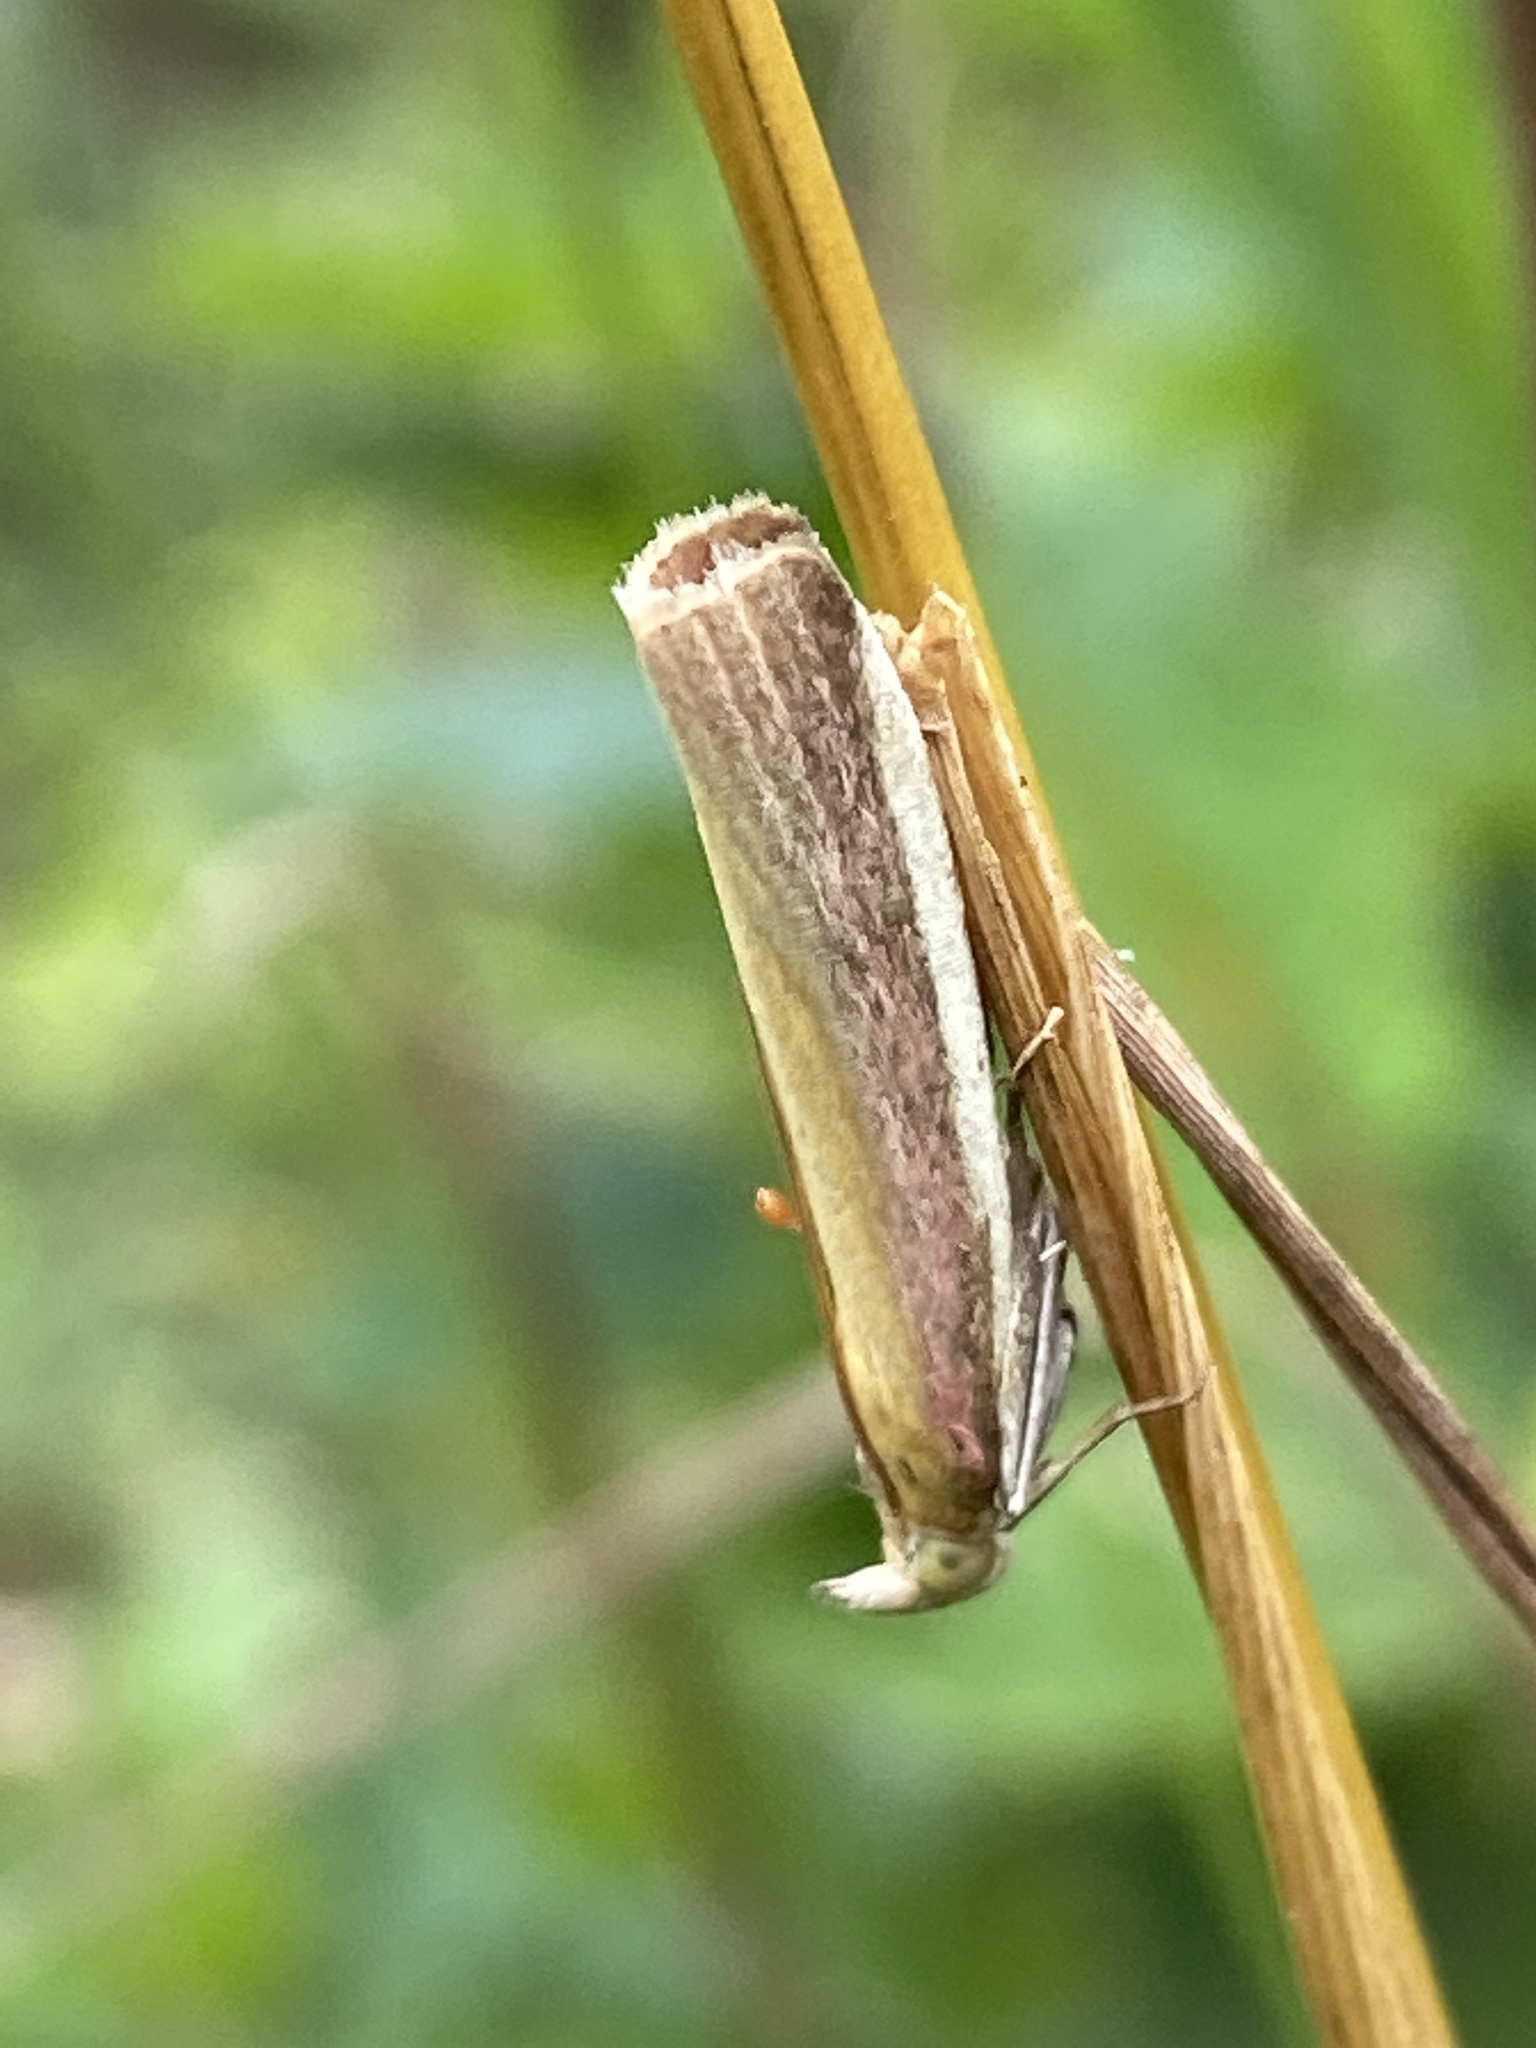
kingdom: Animalia
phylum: Arthropoda
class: Insecta
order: Lepidoptera
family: Pyralidae
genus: Oncocera
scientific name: Oncocera semirubella
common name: Rosy-striped knot-horn
